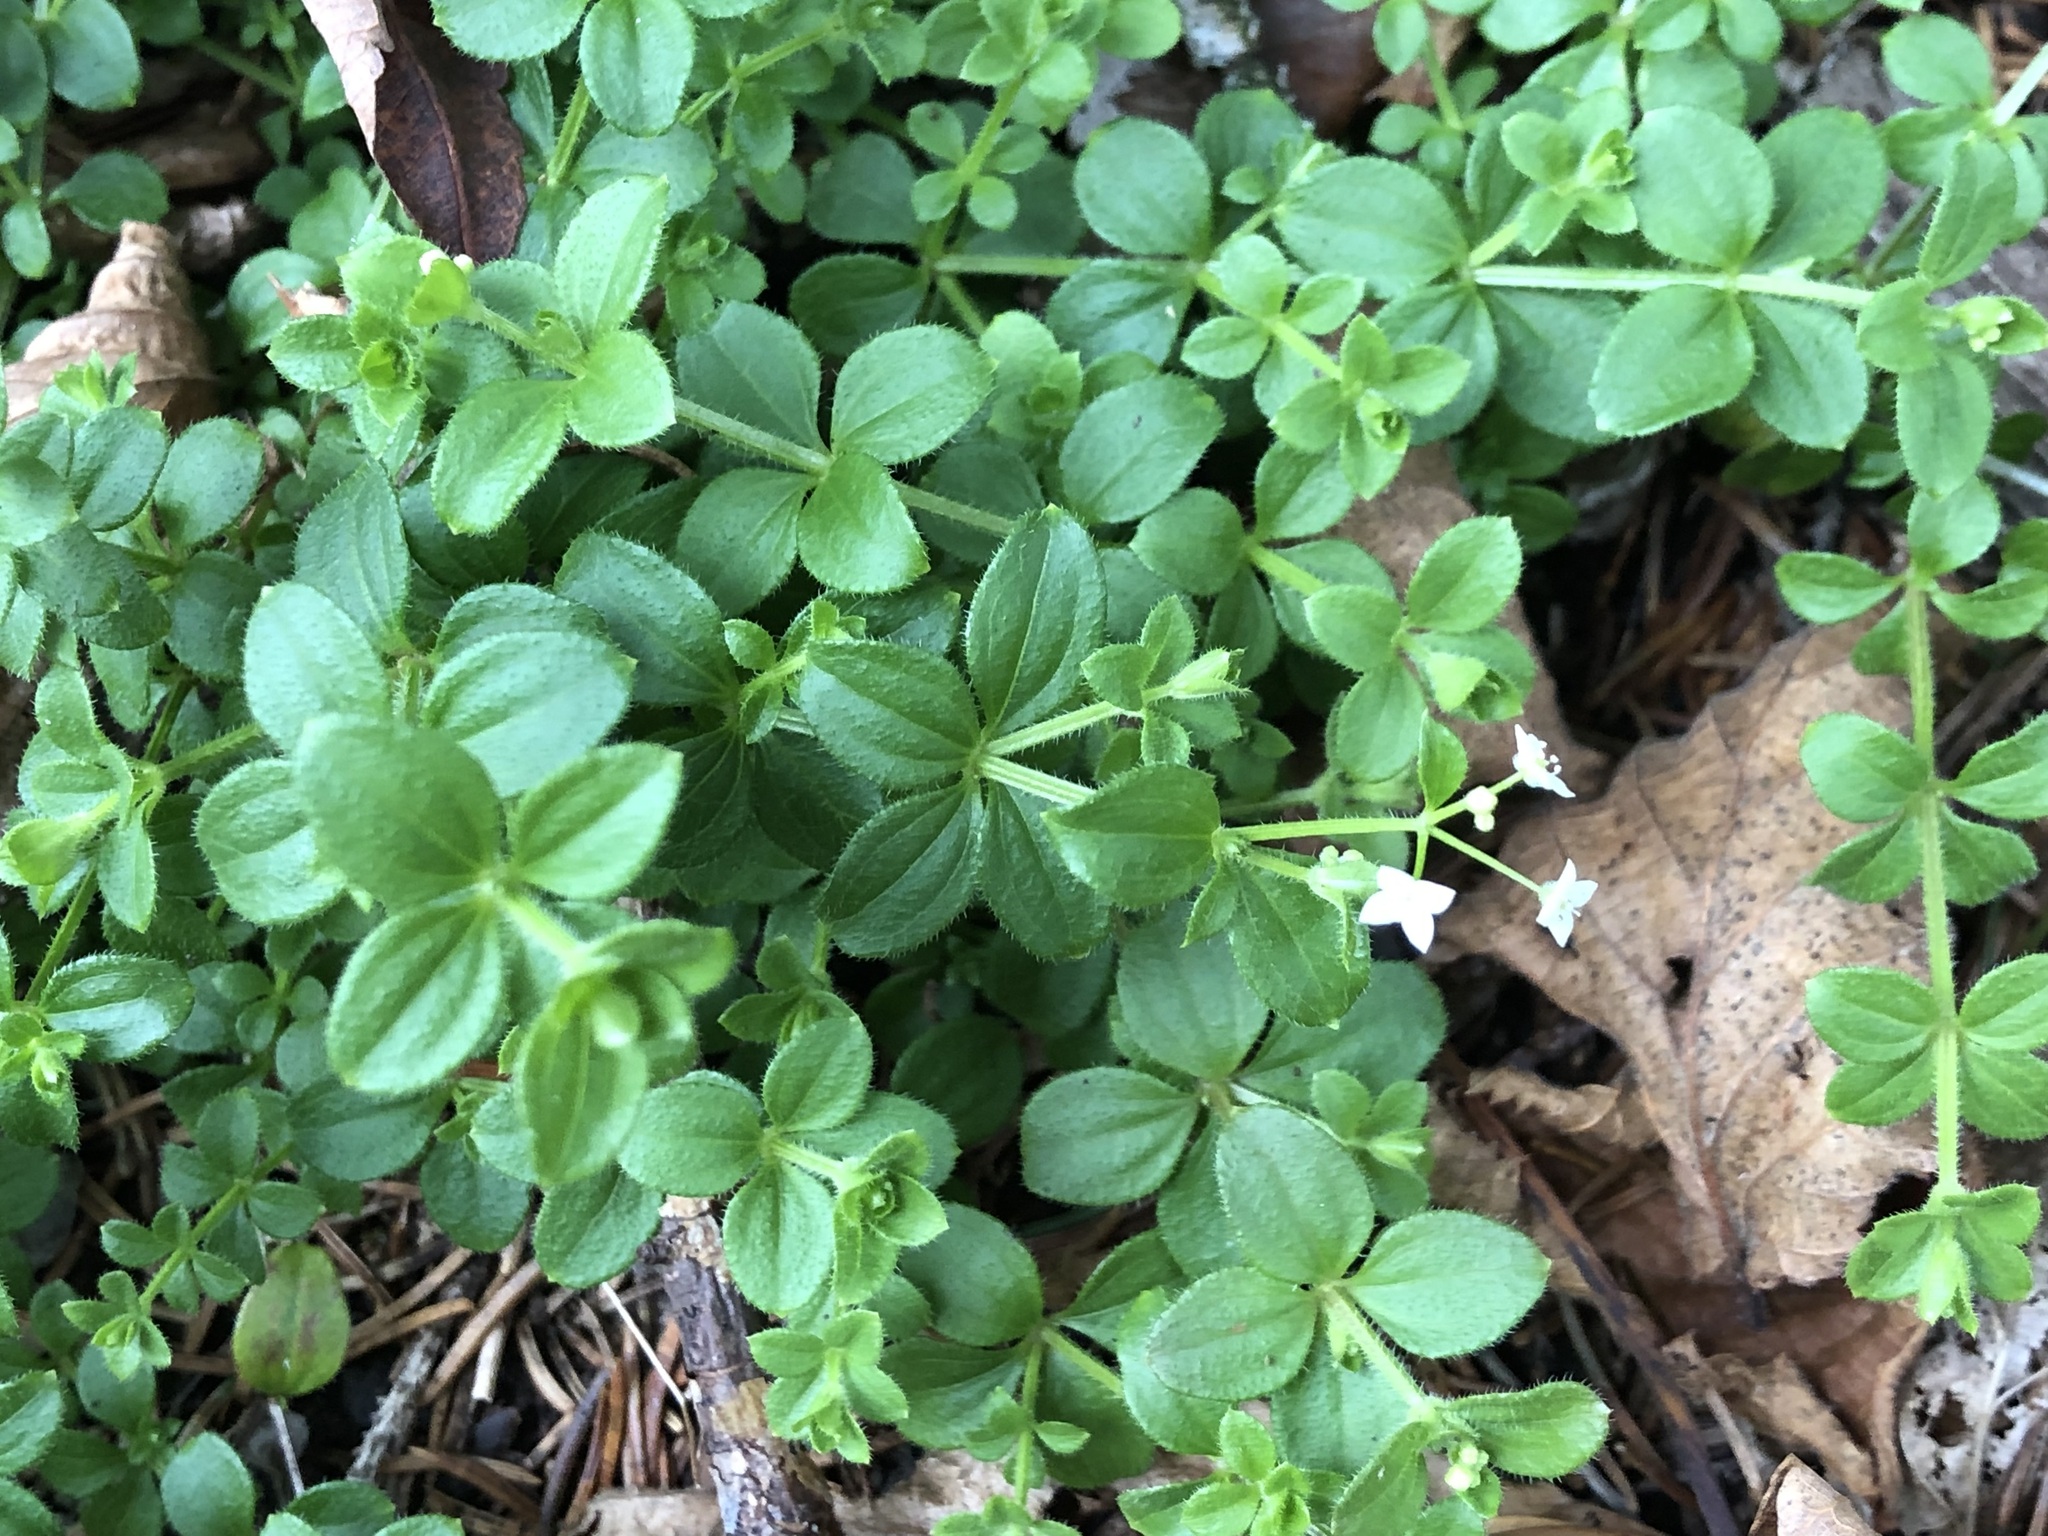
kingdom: Plantae
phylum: Tracheophyta
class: Magnoliopsida
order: Gentianales
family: Rubiaceae
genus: Galium
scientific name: Galium rotundifolium
